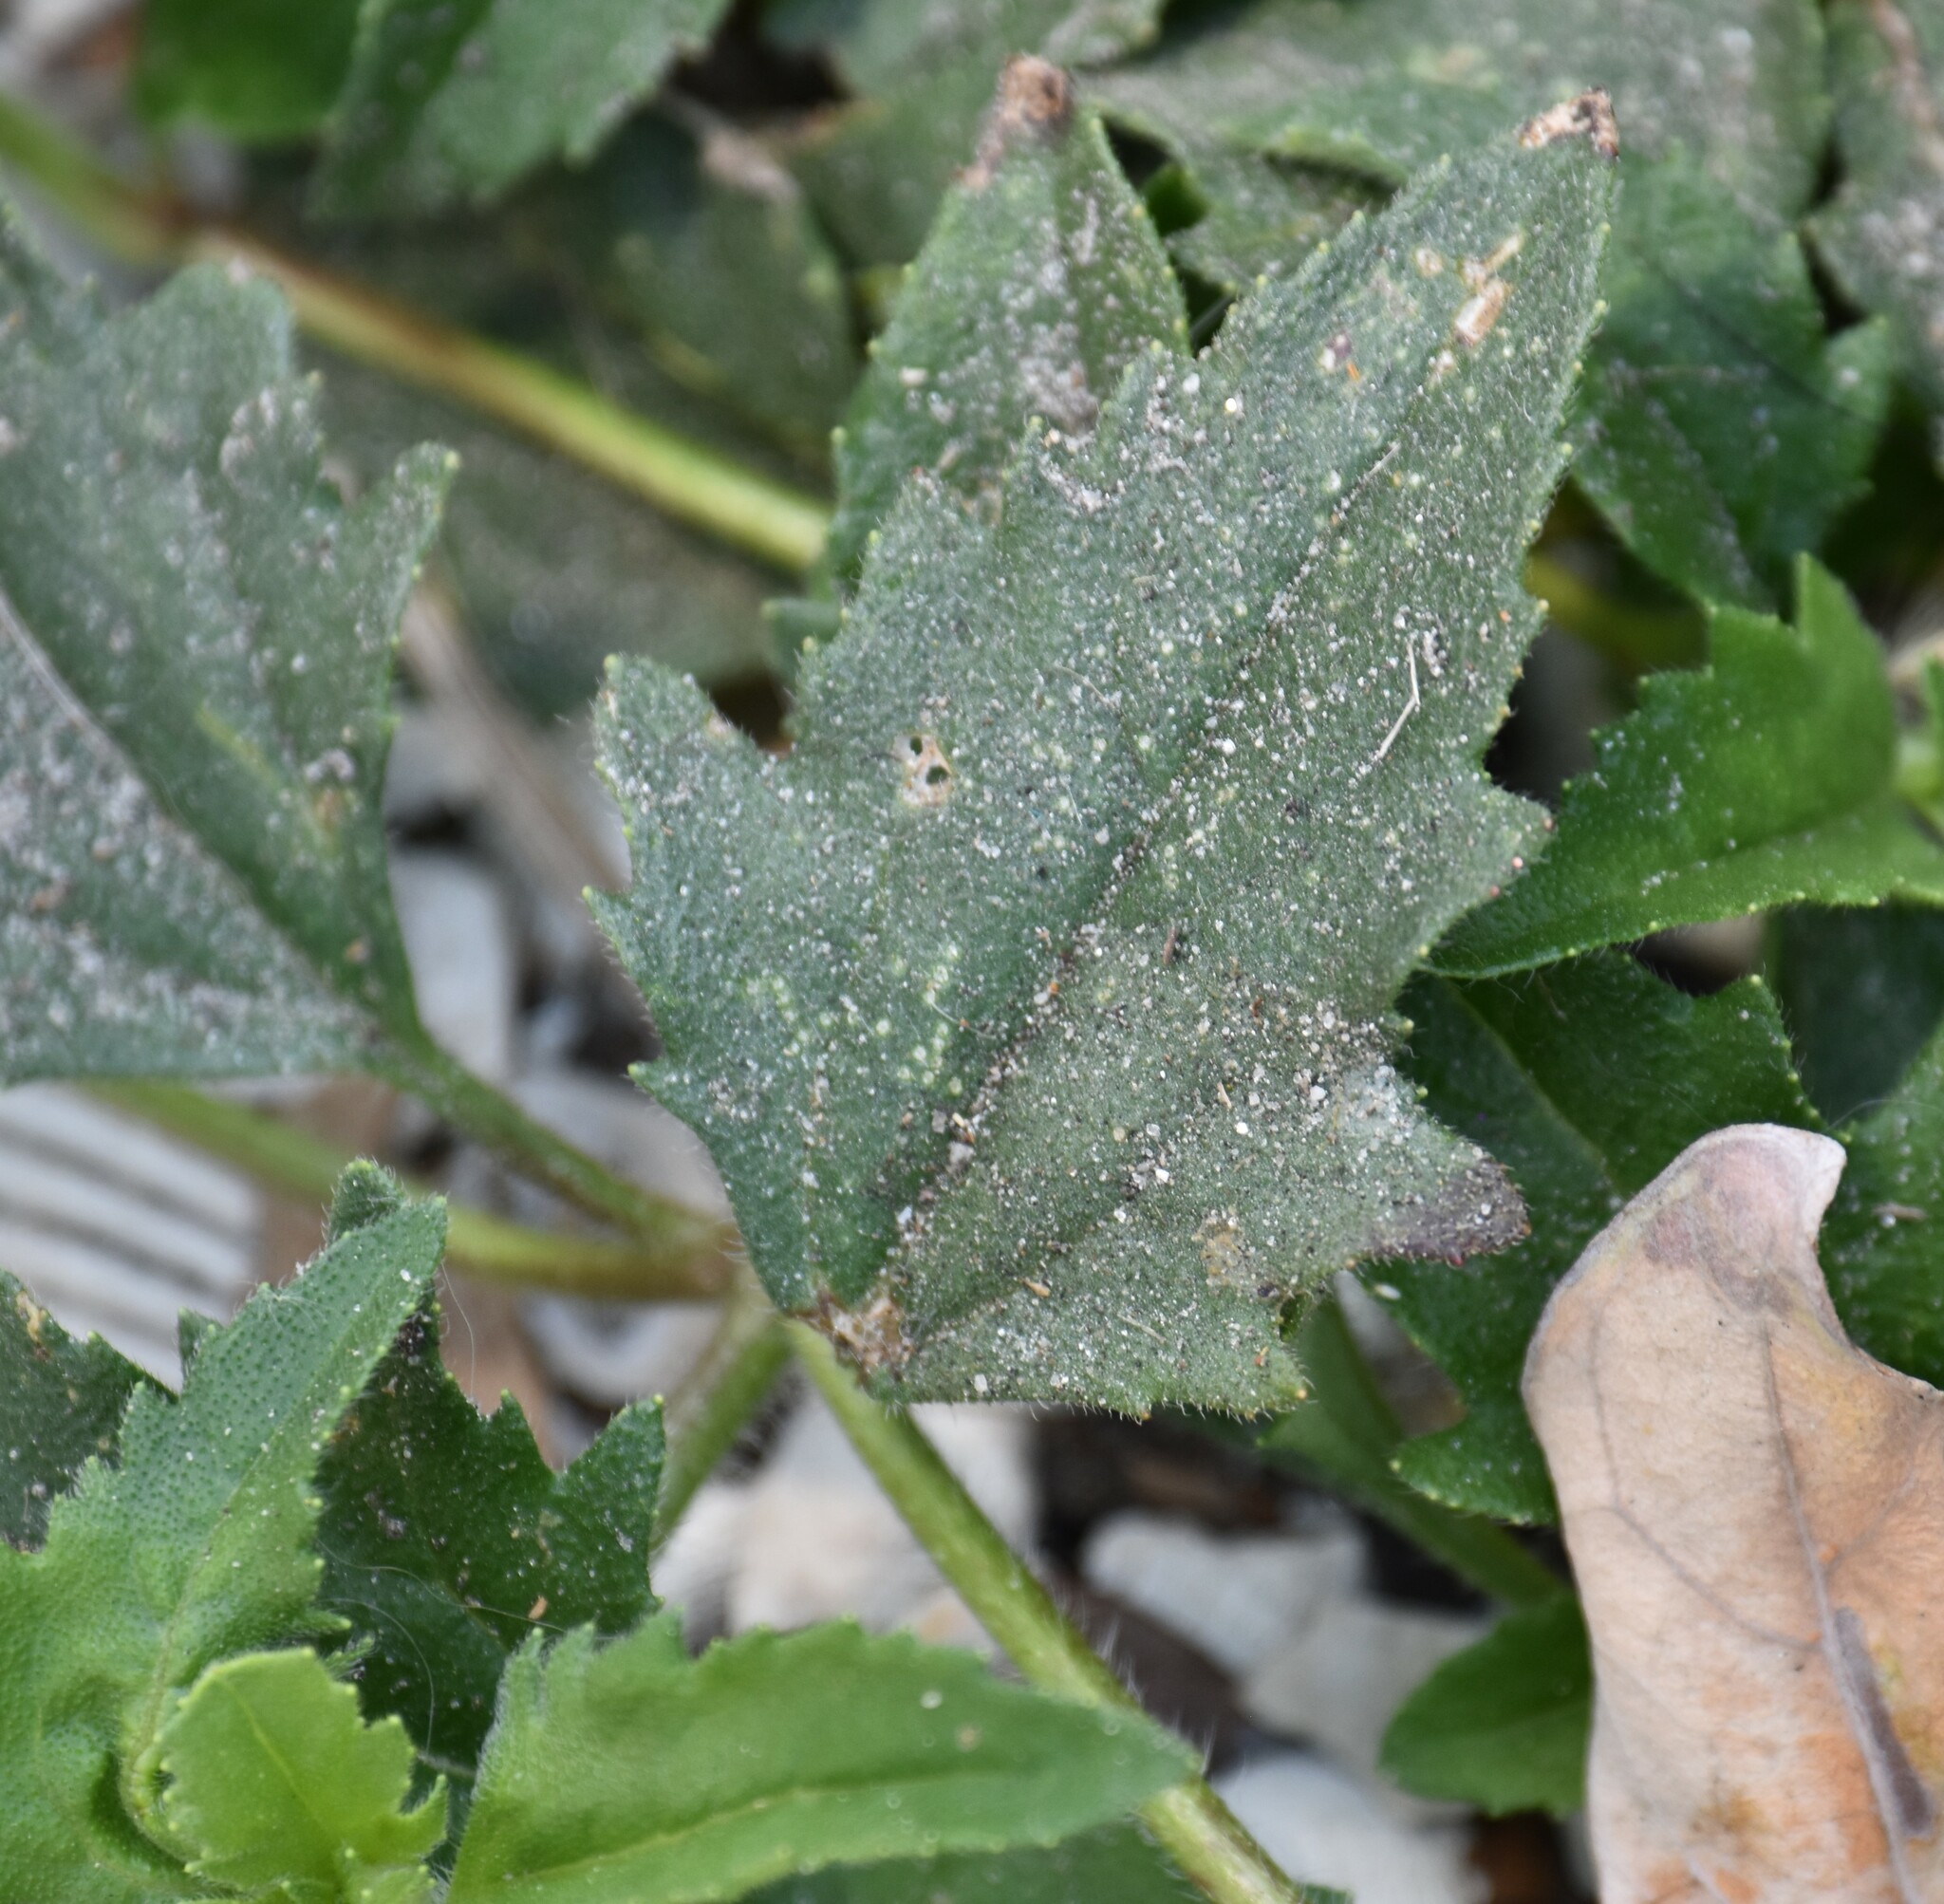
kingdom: Plantae
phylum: Tracheophyta
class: Magnoliopsida
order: Asterales
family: Asteraceae
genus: Tridax
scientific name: Tridax procumbens
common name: Coatbuttons
